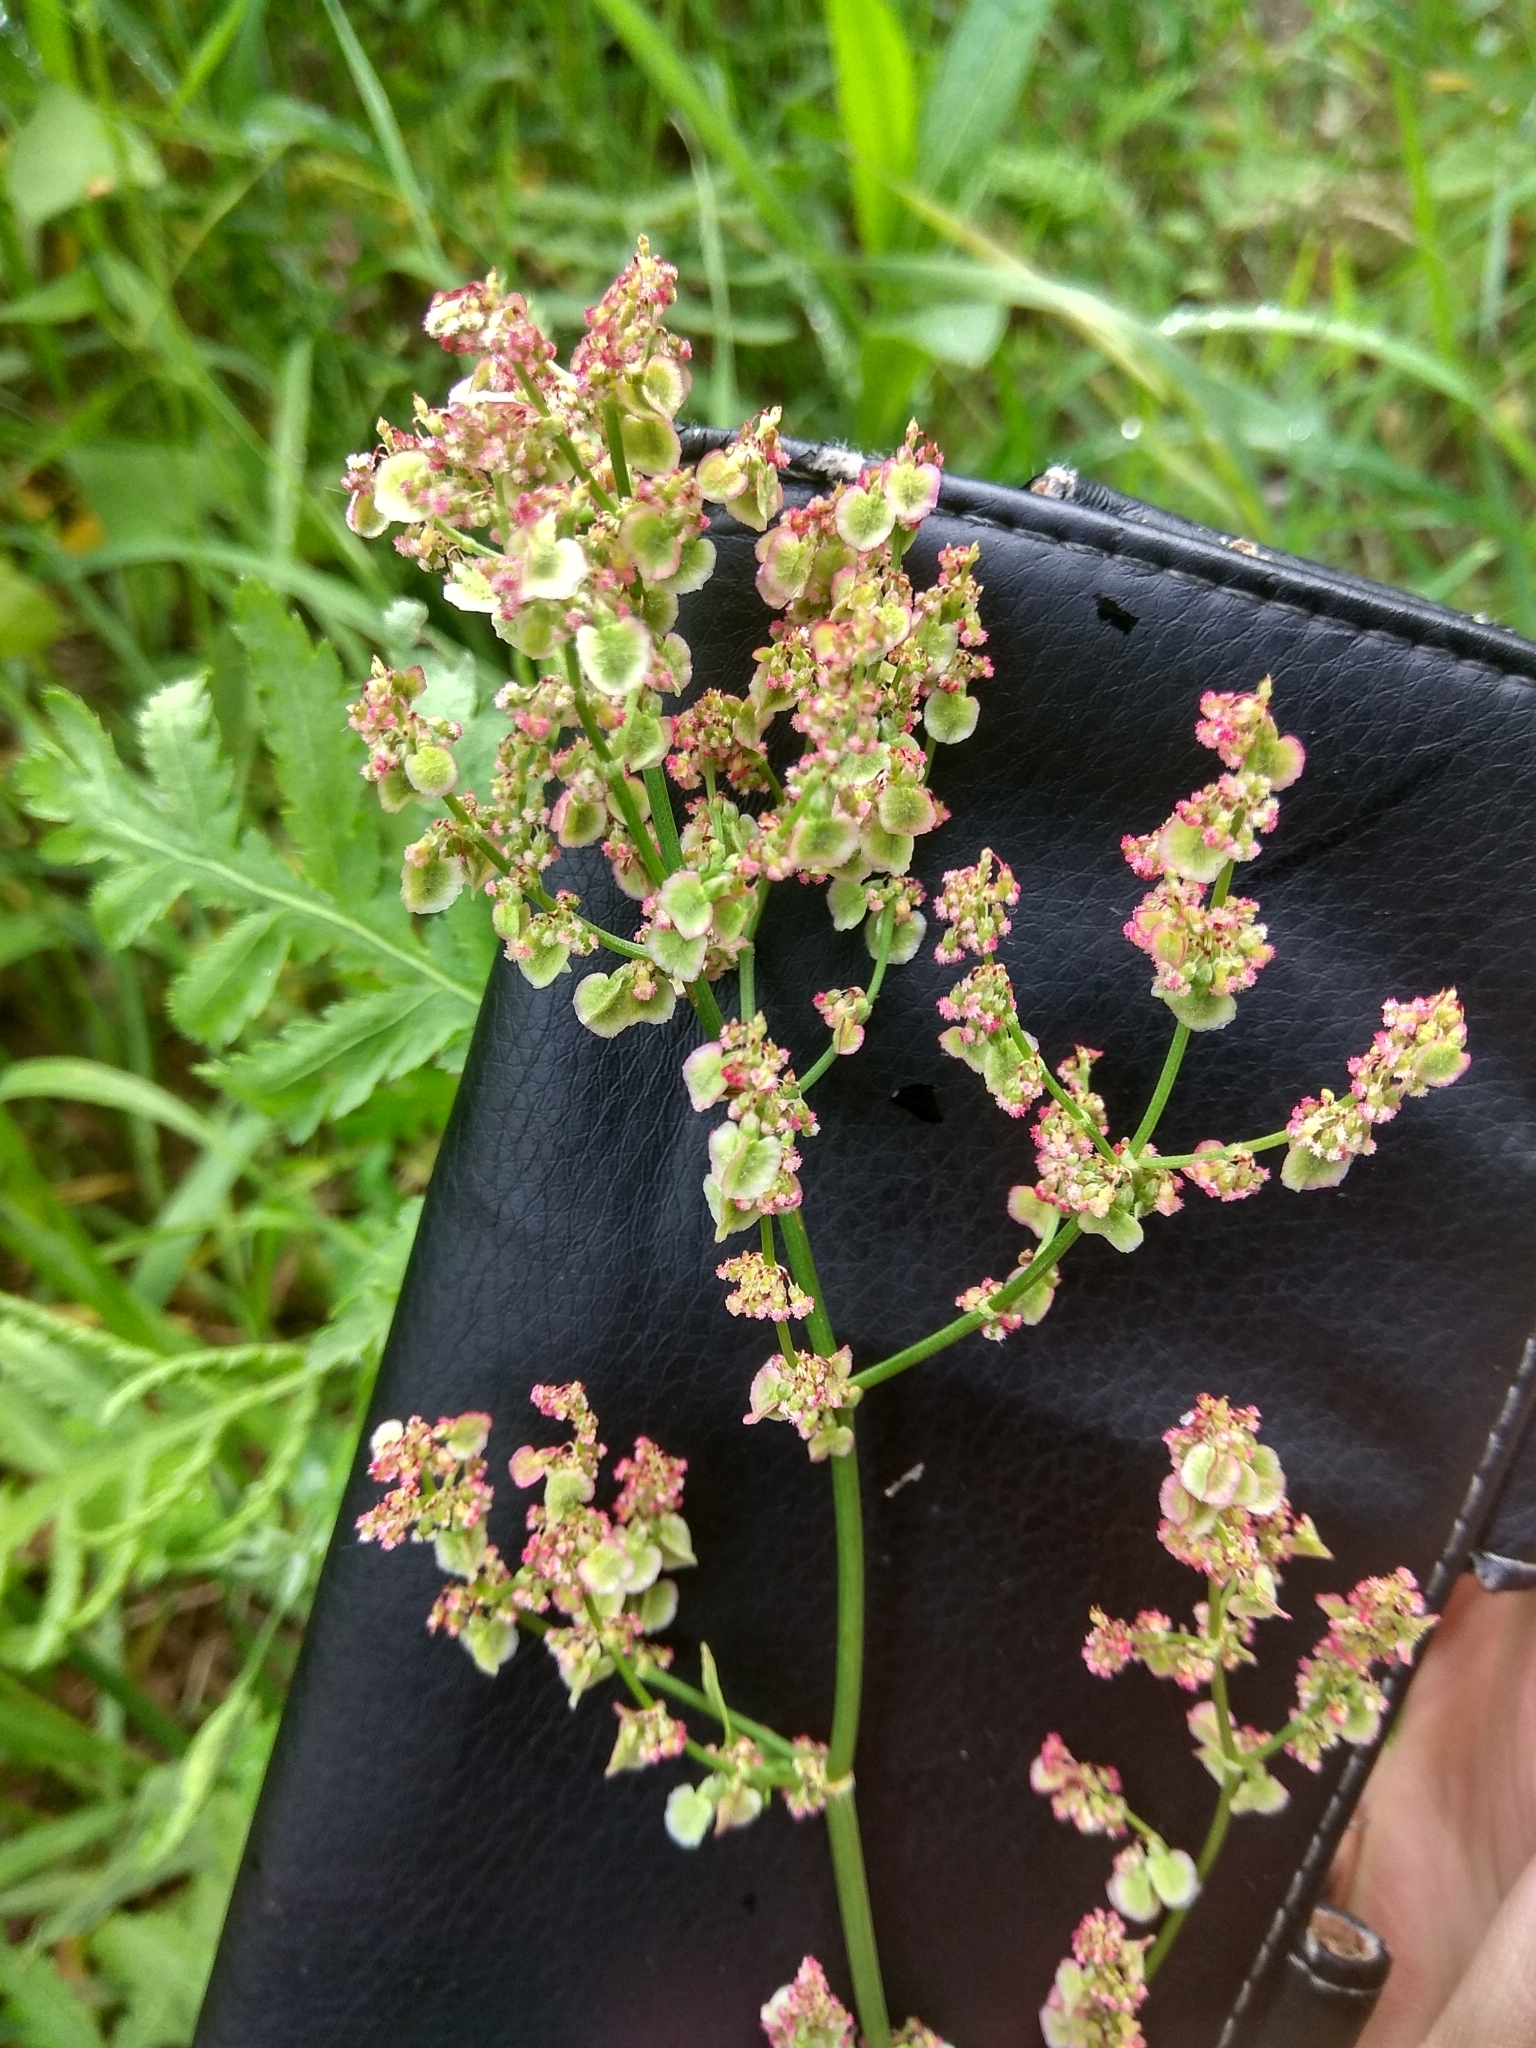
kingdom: Plantae
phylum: Tracheophyta
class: Magnoliopsida
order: Caryophyllales
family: Polygonaceae
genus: Rumex
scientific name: Rumex thyrsiflorus
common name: Garden sorrel
